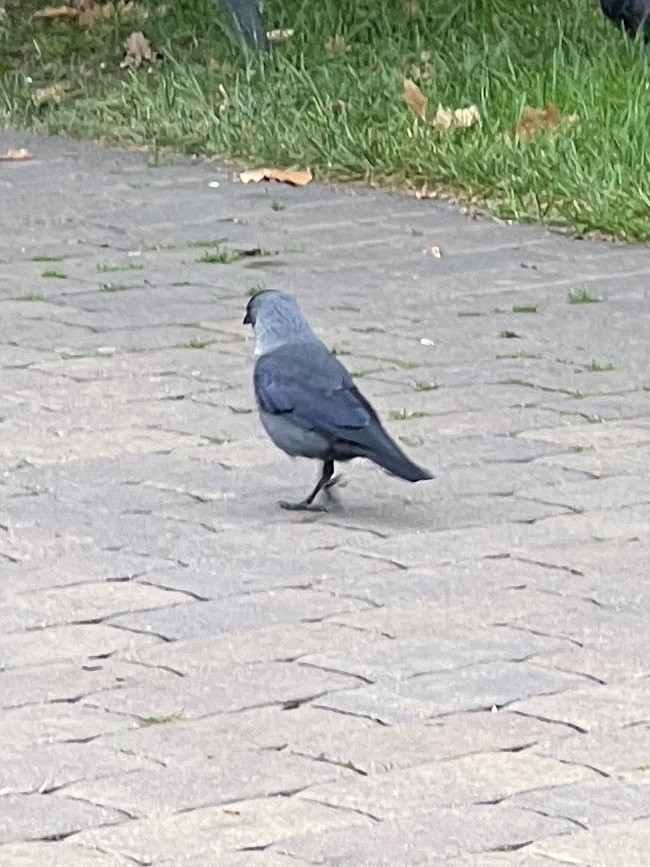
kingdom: Animalia
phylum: Chordata
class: Aves
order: Passeriformes
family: Corvidae
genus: Coloeus
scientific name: Coloeus monedula
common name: Western jackdaw
